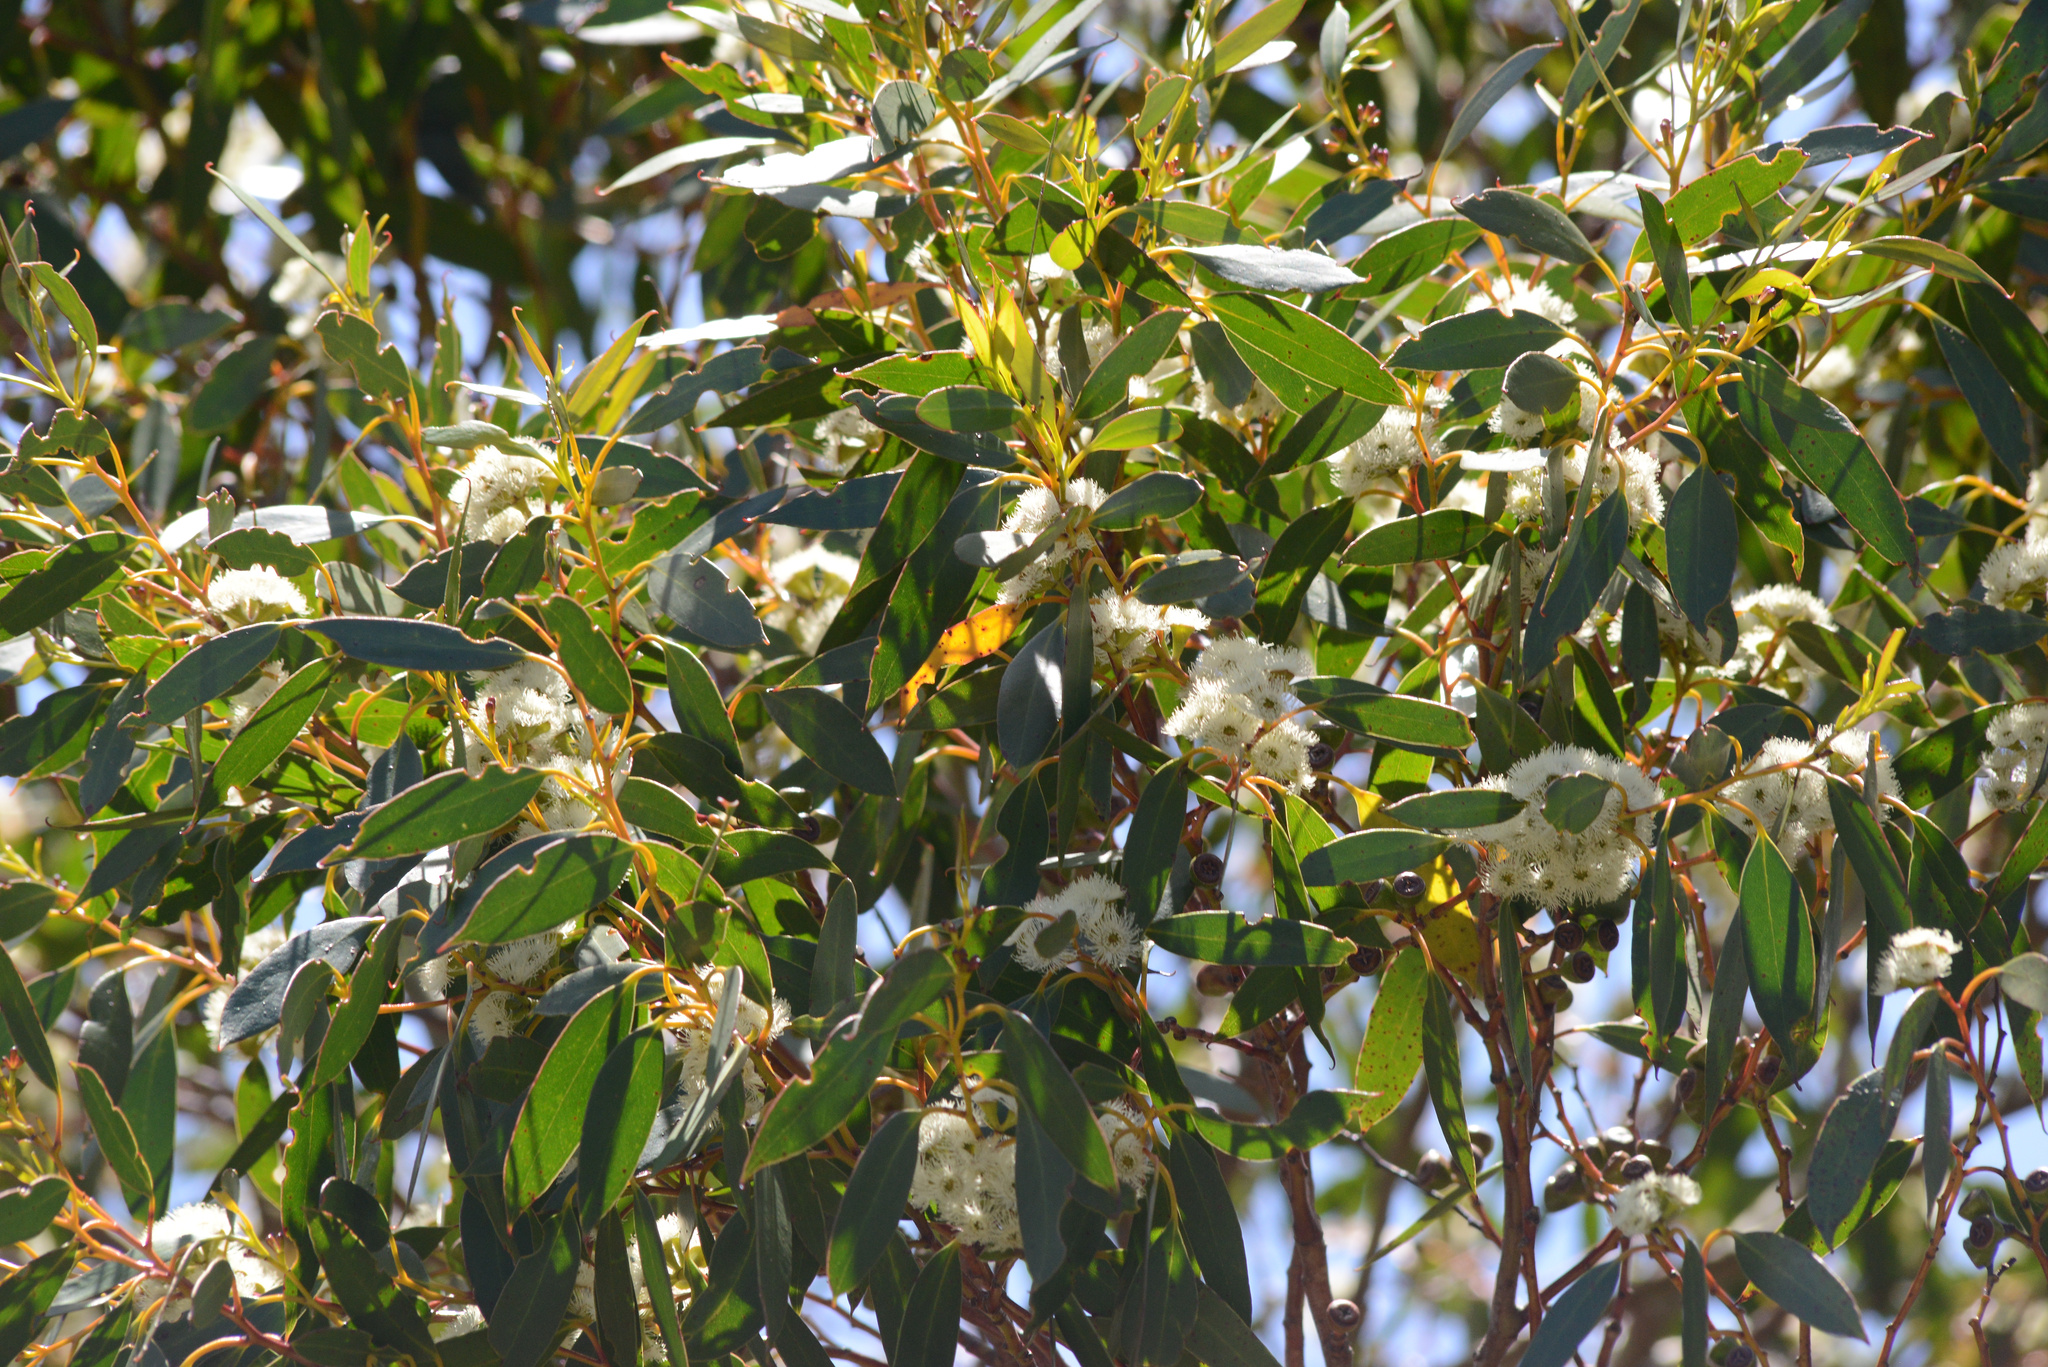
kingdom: Plantae
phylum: Tracheophyta
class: Magnoliopsida
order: Myrtales
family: Myrtaceae
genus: Eucalyptus
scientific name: Eucalyptus coccifera
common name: Tasmanian snow-gum
